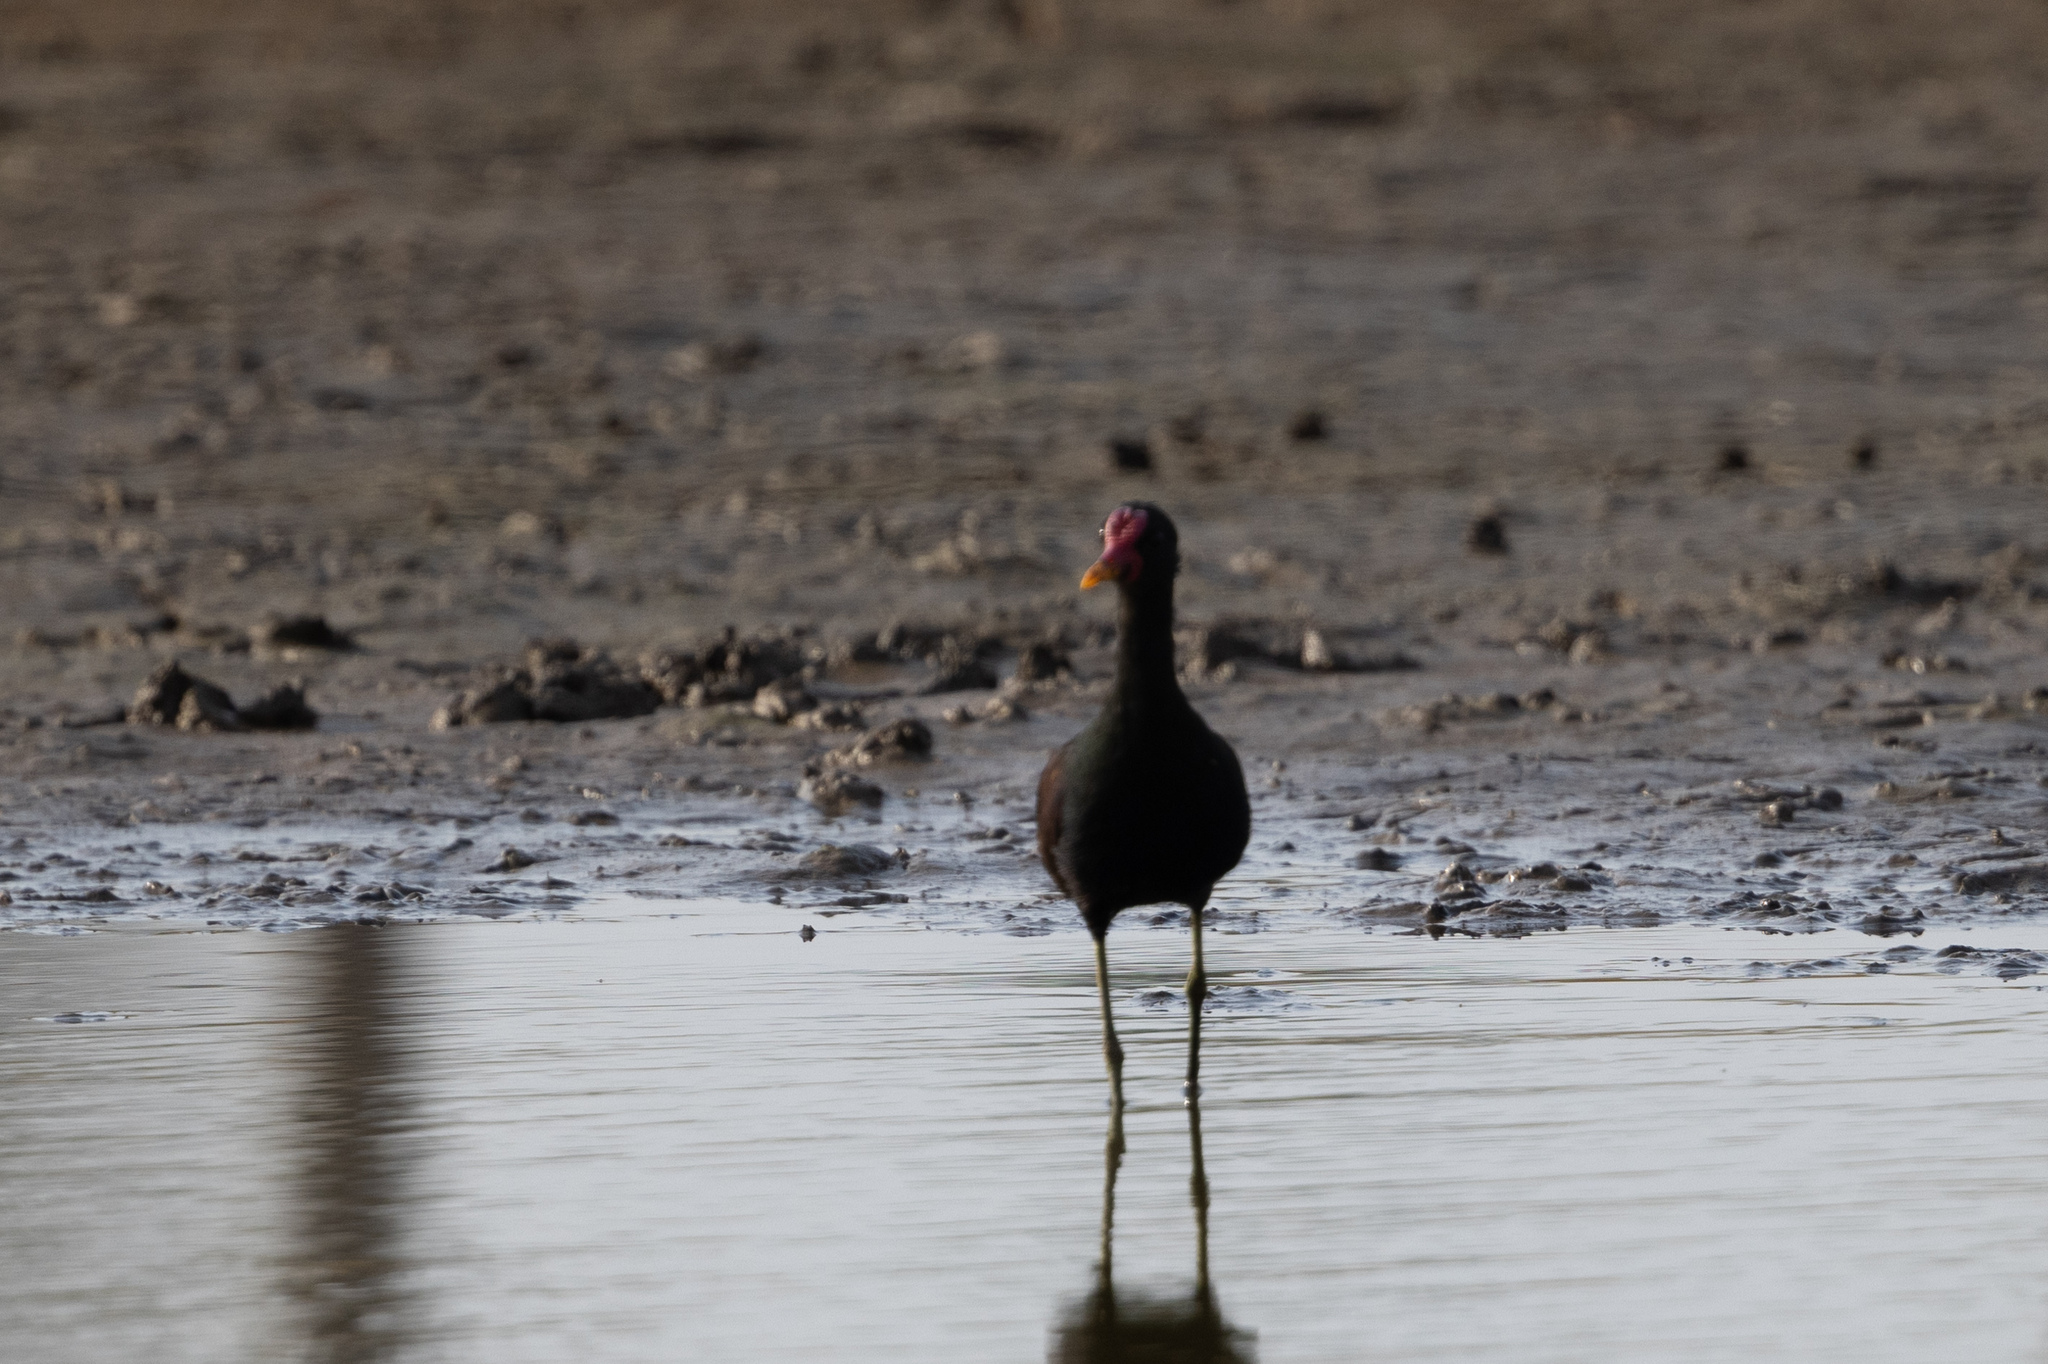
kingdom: Animalia
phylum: Chordata
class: Aves
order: Charadriiformes
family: Jacanidae
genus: Jacana
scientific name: Jacana jacana
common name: Wattled jacana
